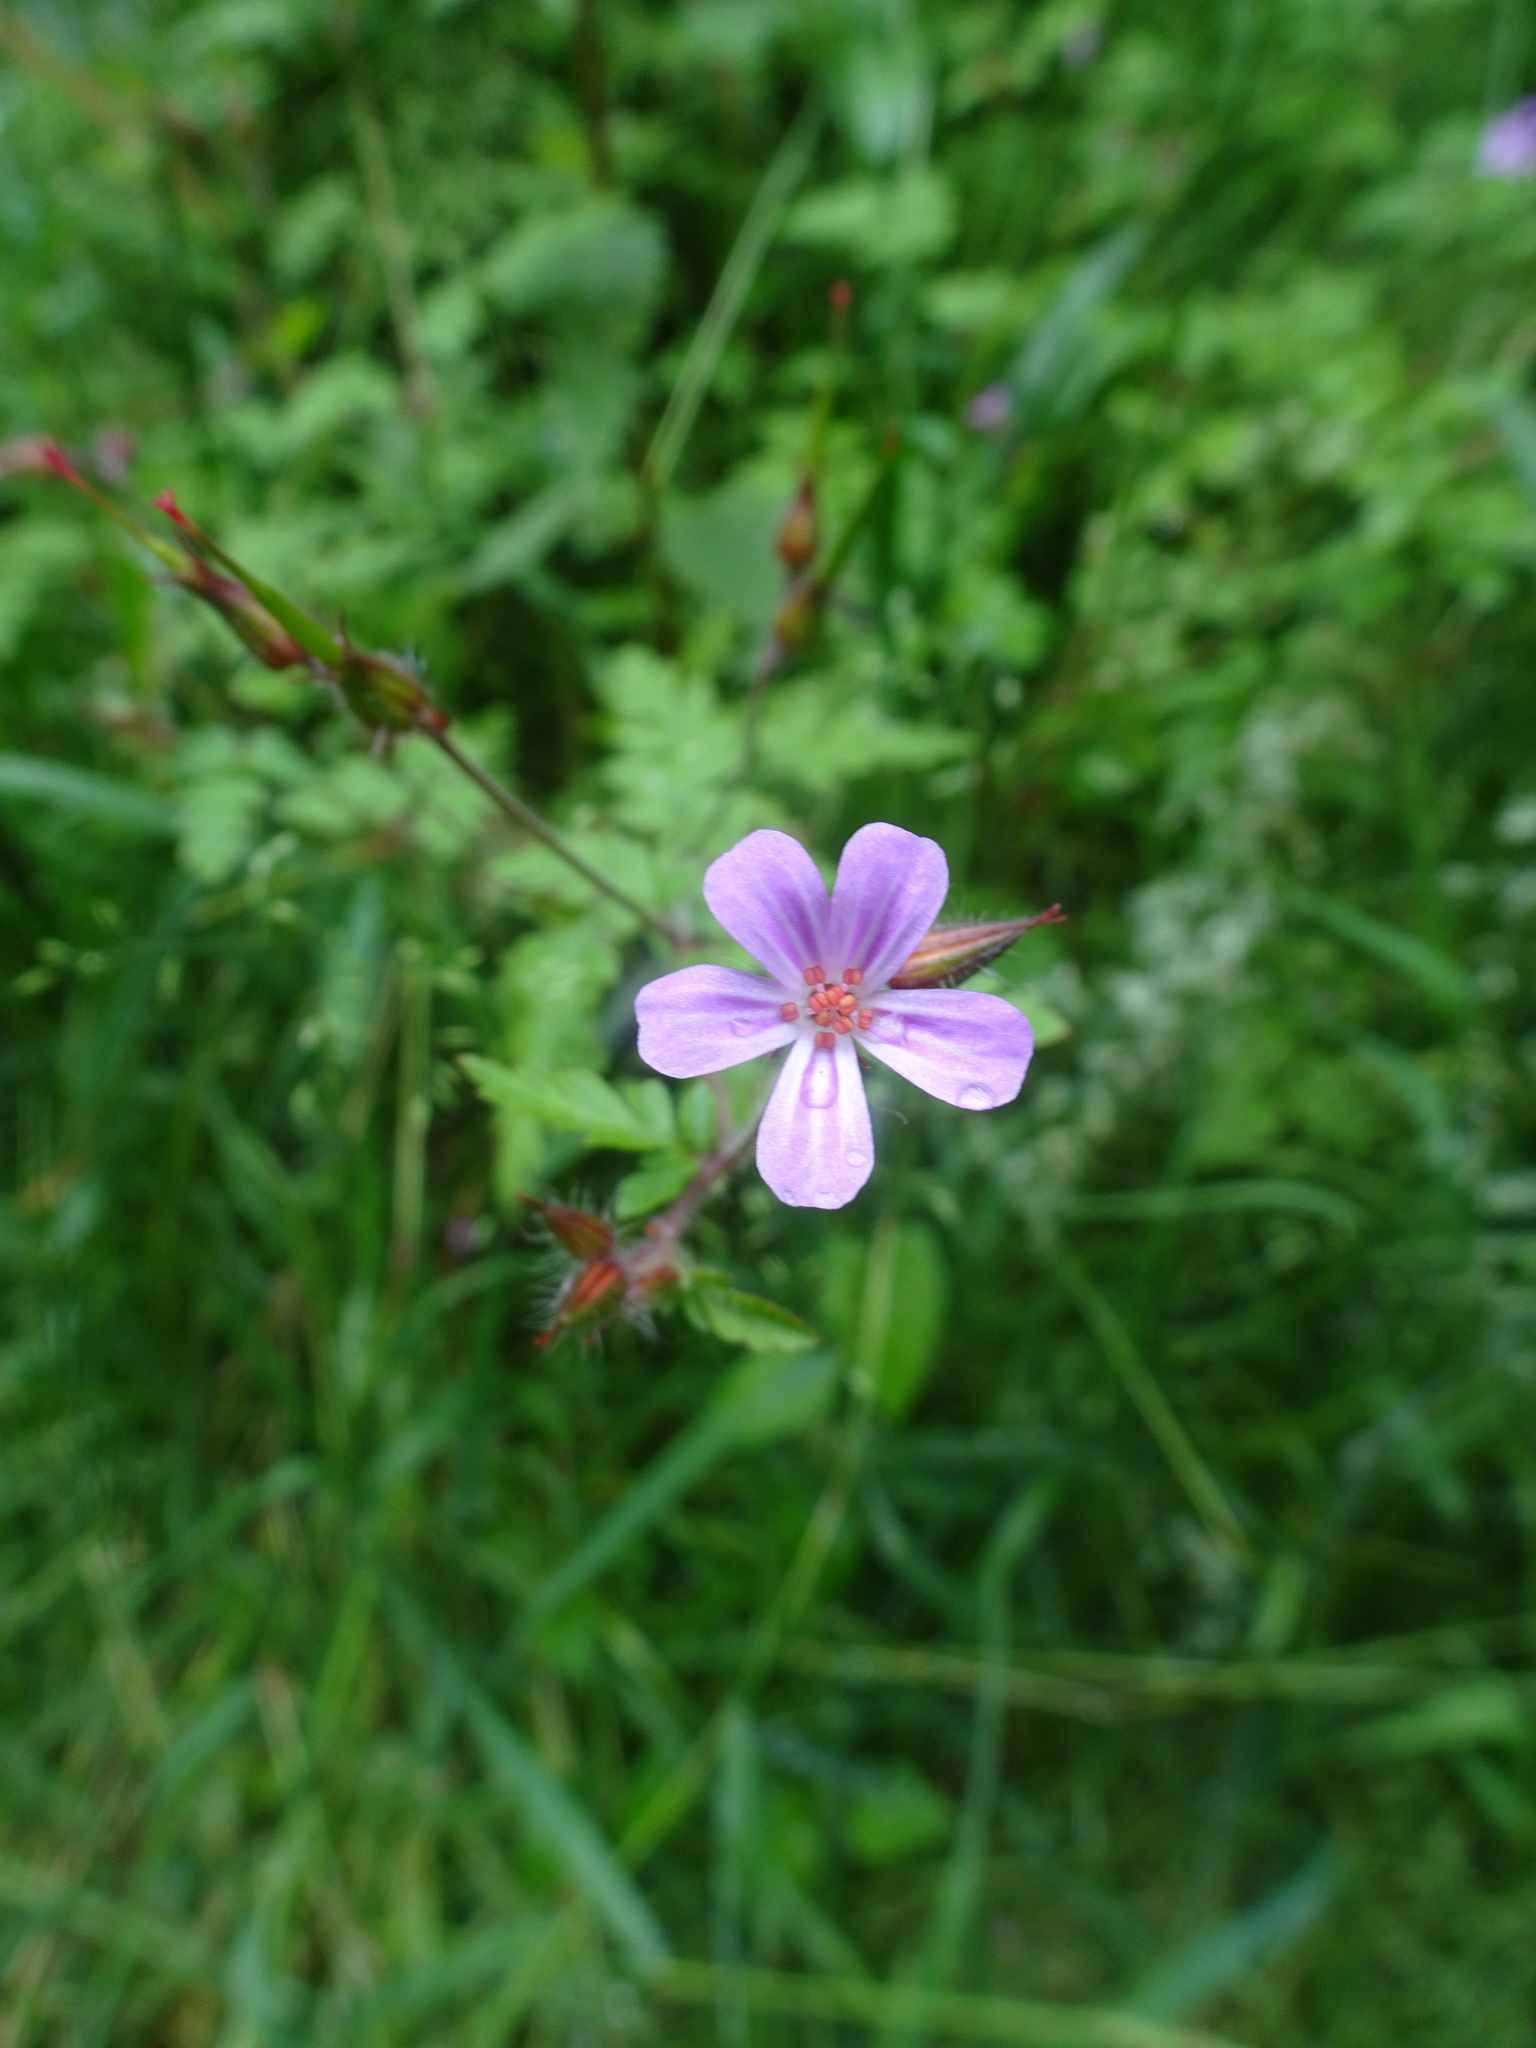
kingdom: Plantae
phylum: Tracheophyta
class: Magnoliopsida
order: Geraniales
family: Geraniaceae
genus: Geranium
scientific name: Geranium robertianum
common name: Herb-robert
